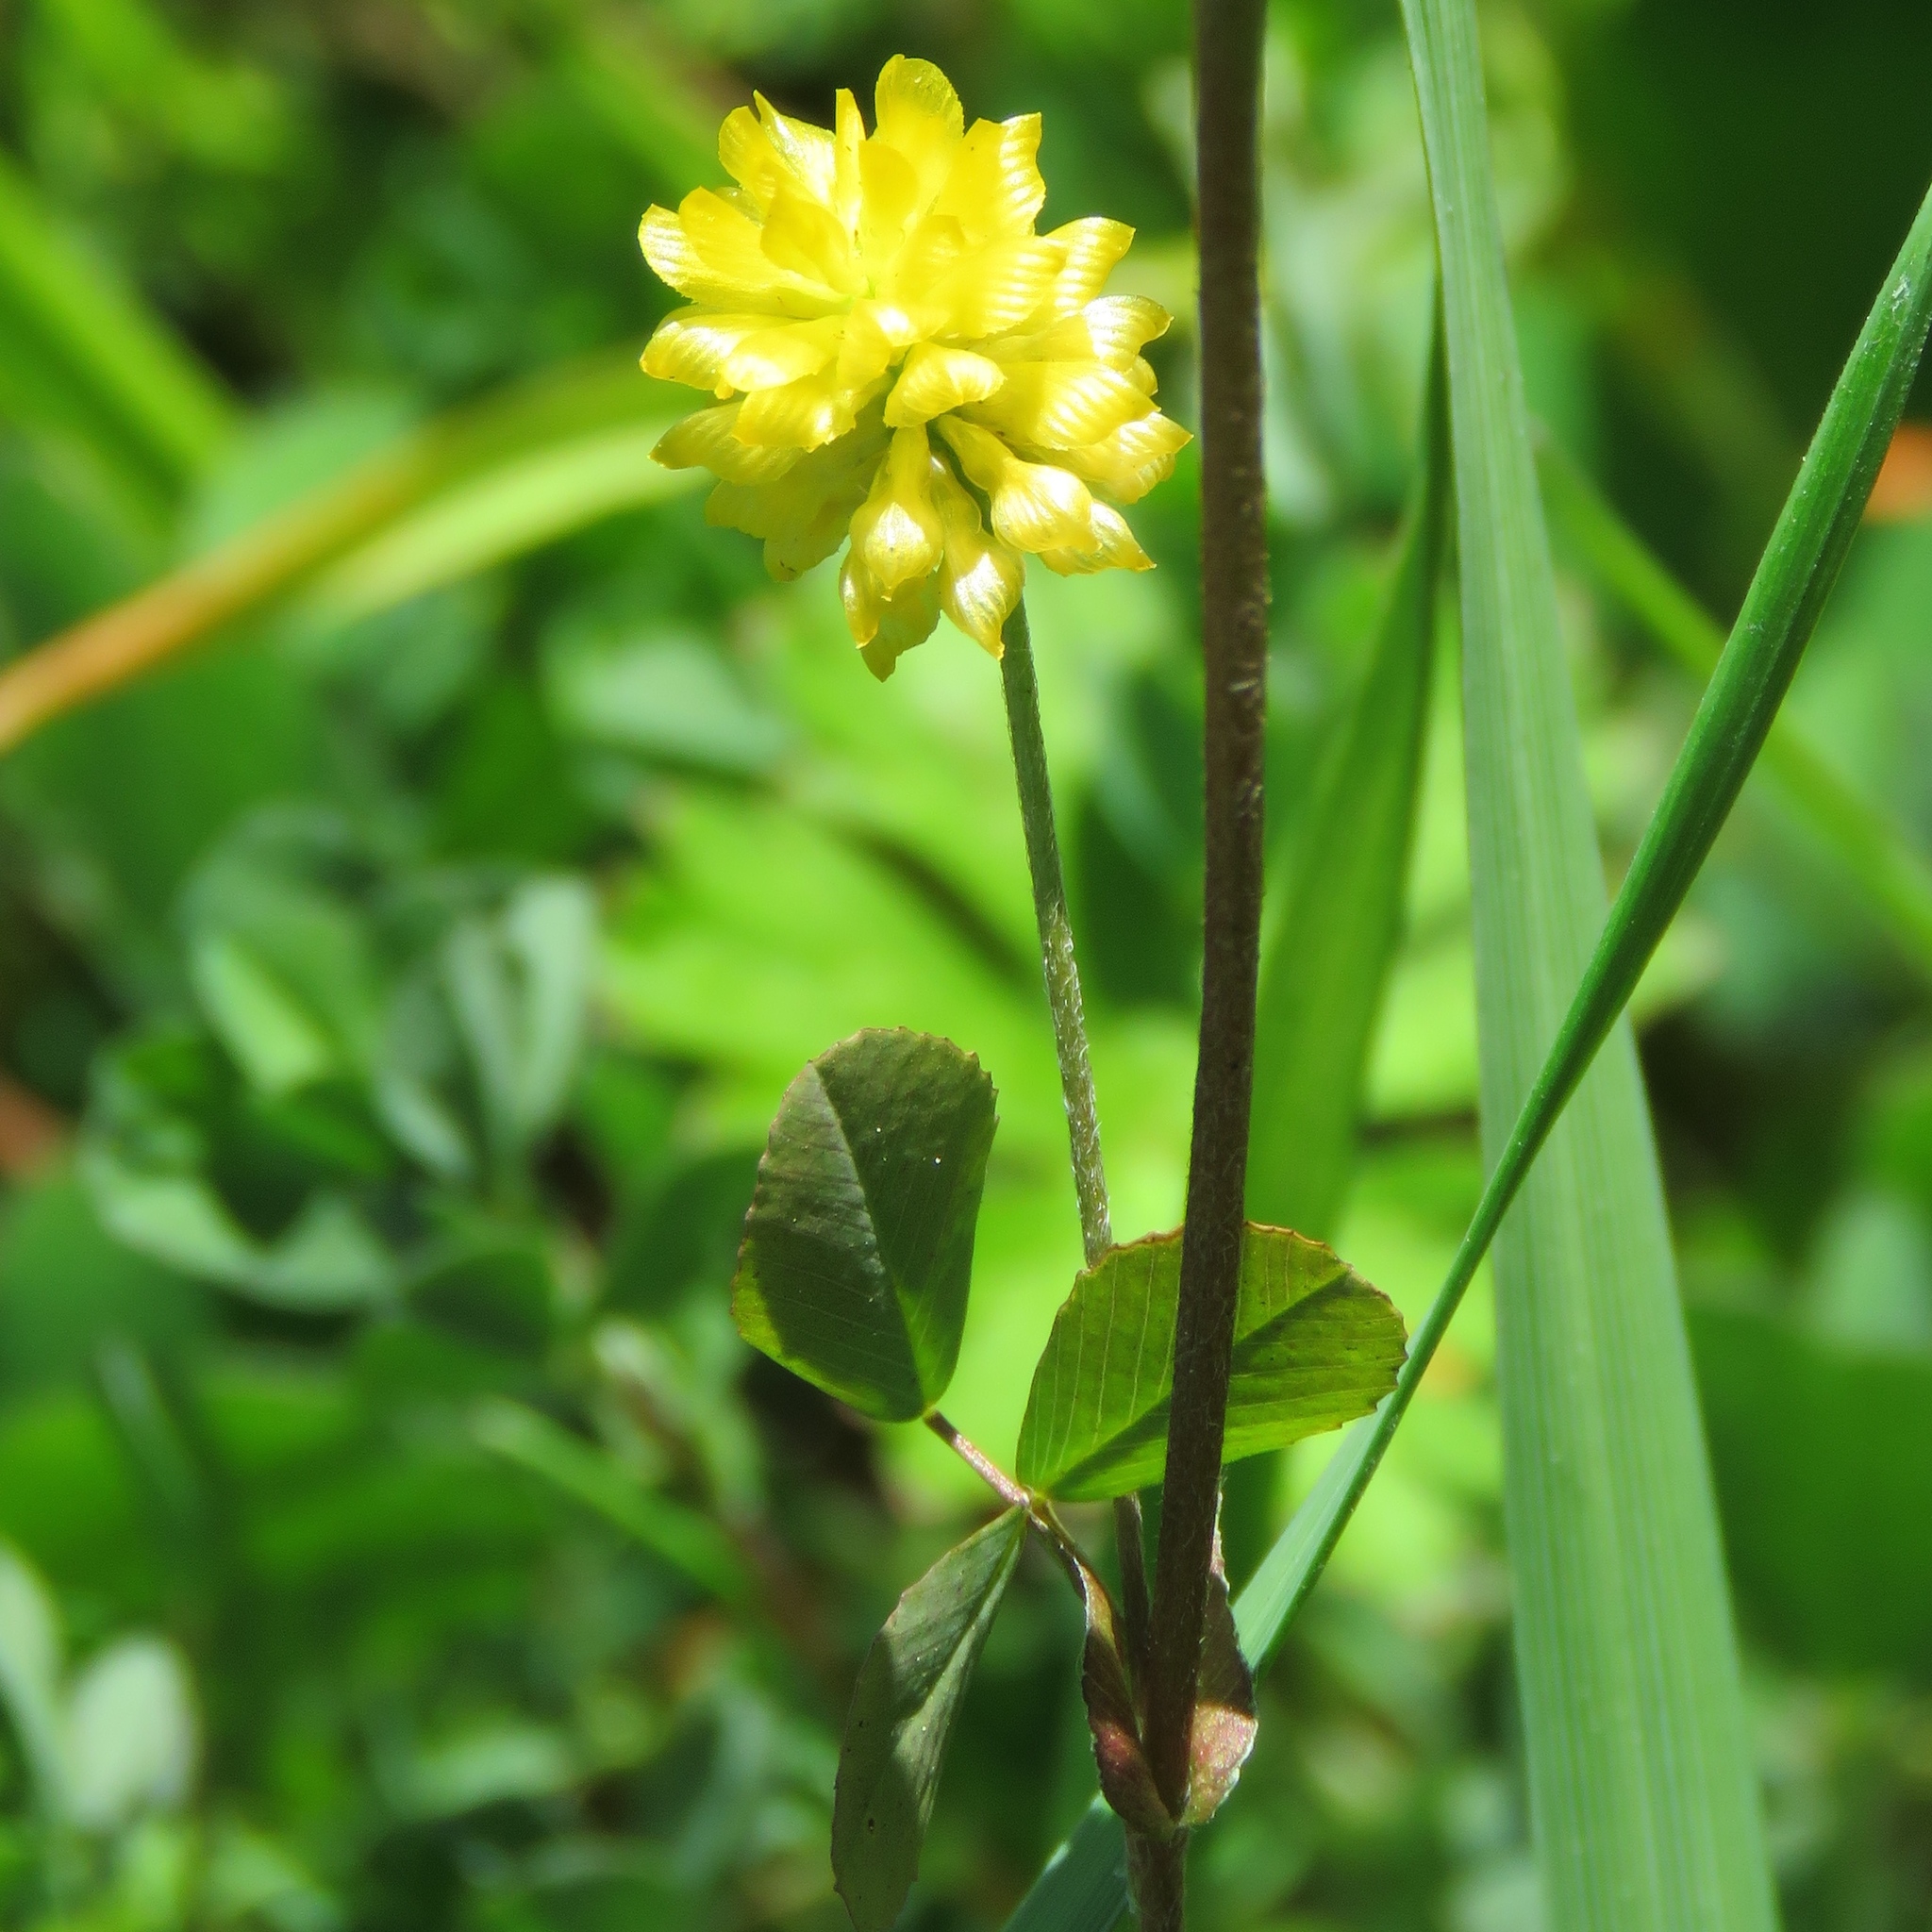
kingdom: Plantae
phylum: Tracheophyta
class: Magnoliopsida
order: Fabales
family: Fabaceae
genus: Trifolium
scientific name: Trifolium campestre
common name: Field clover
